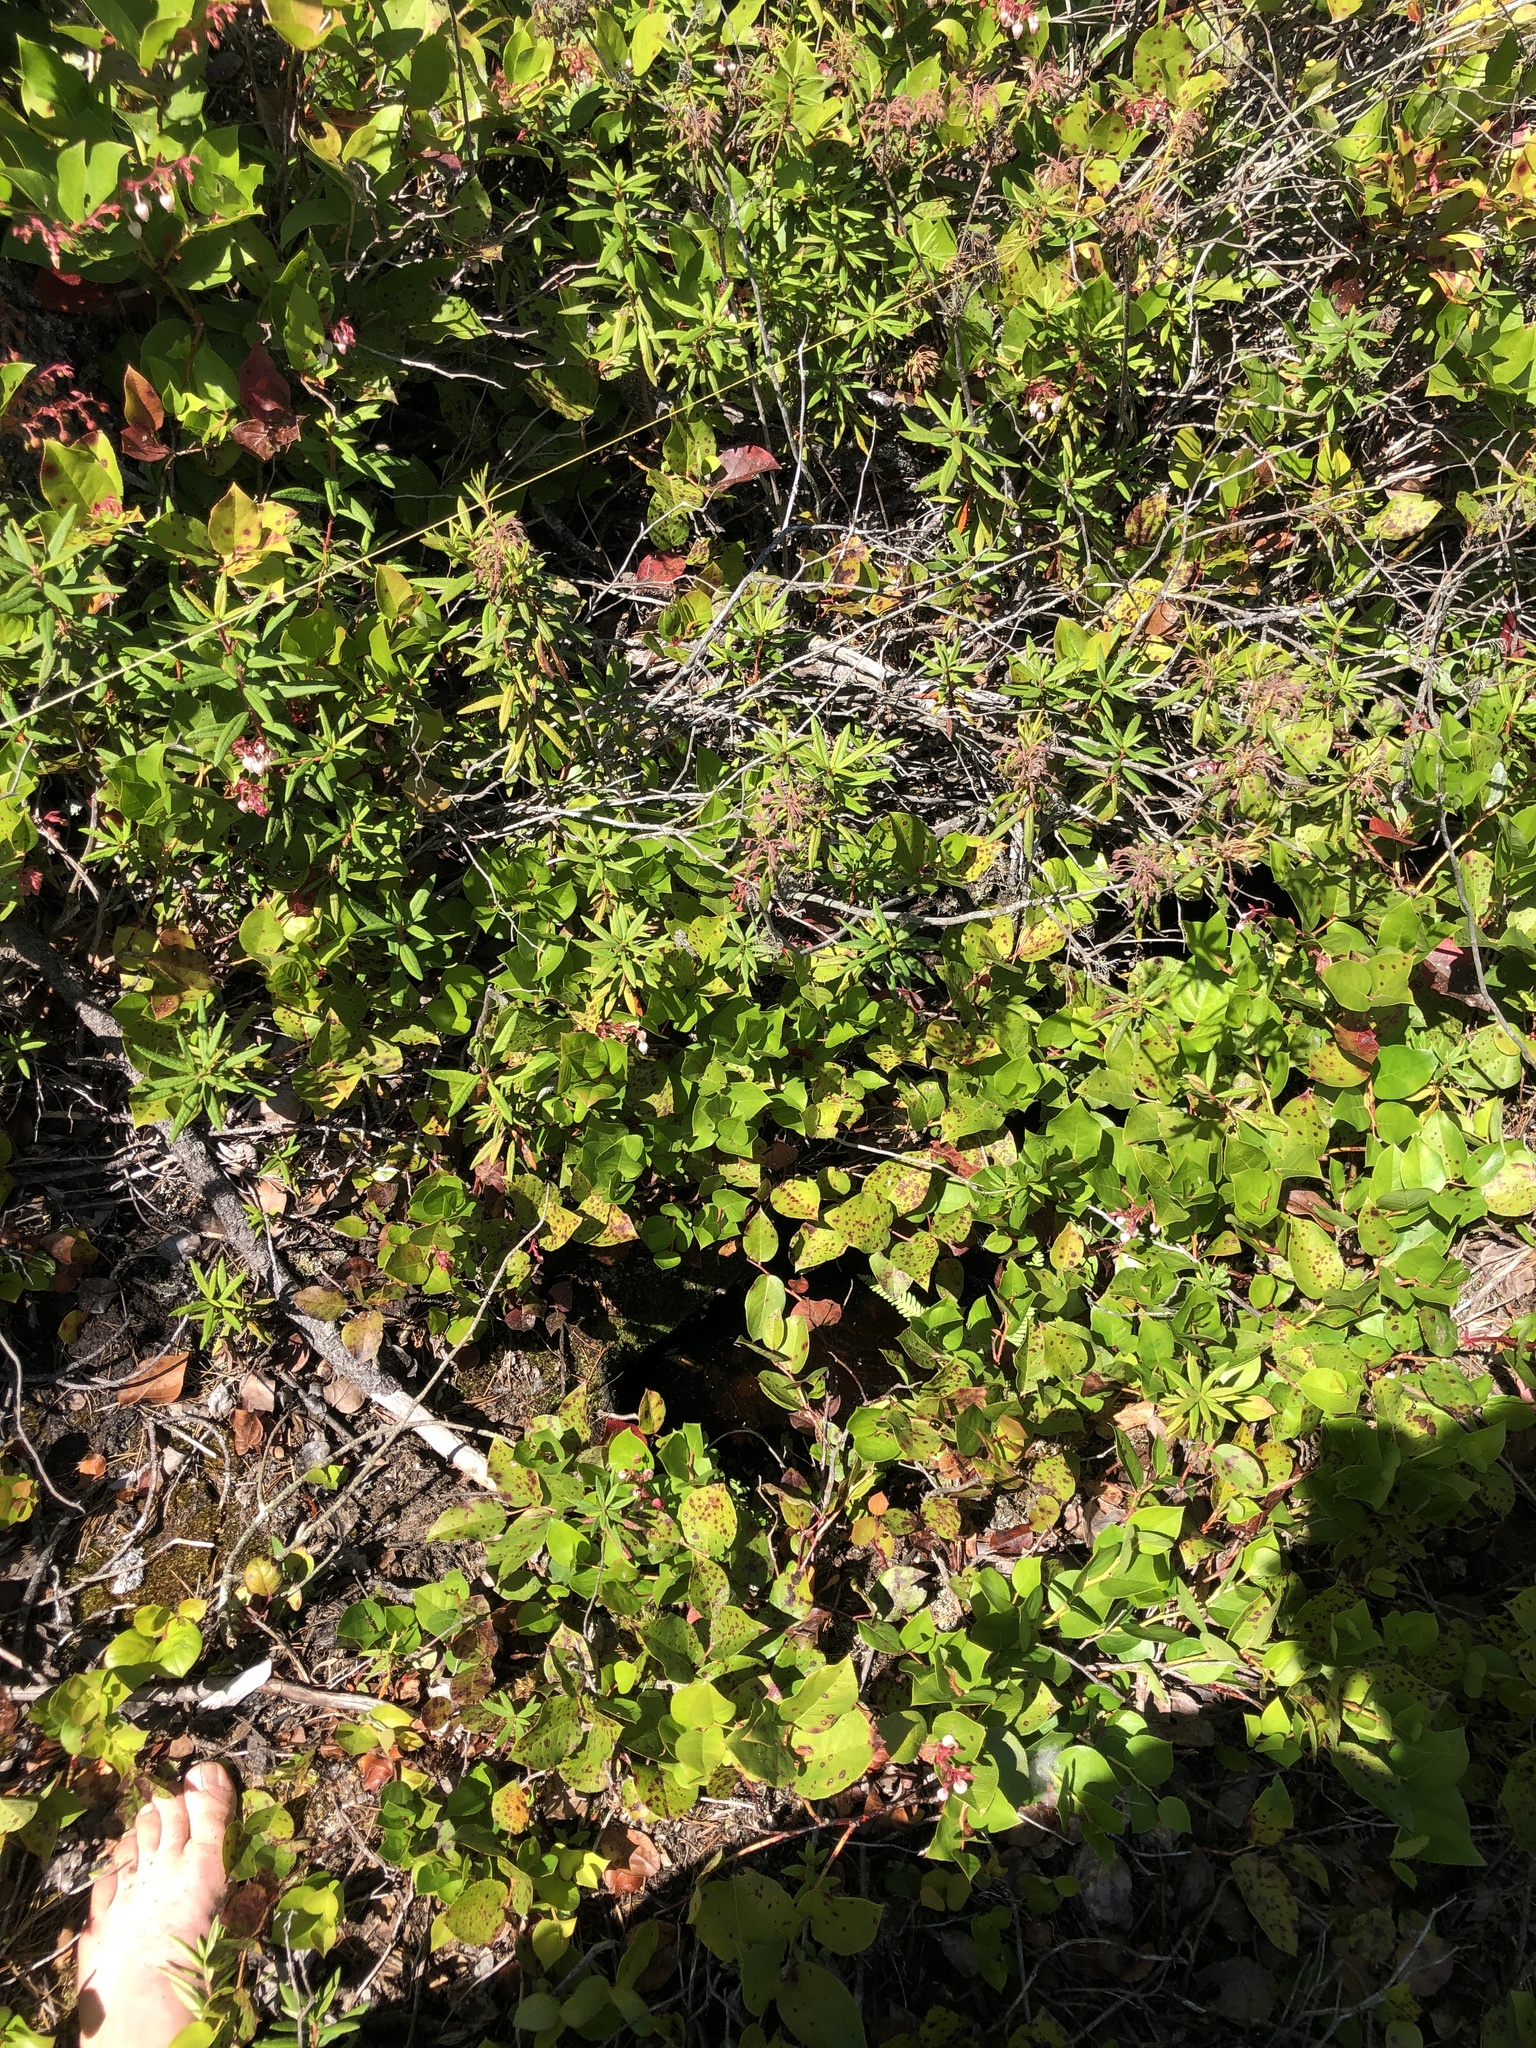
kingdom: Plantae
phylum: Tracheophyta
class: Polypodiopsida
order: Polypodiales
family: Blechnaceae
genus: Struthiopteris
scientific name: Struthiopteris spicant
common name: Deer fern
